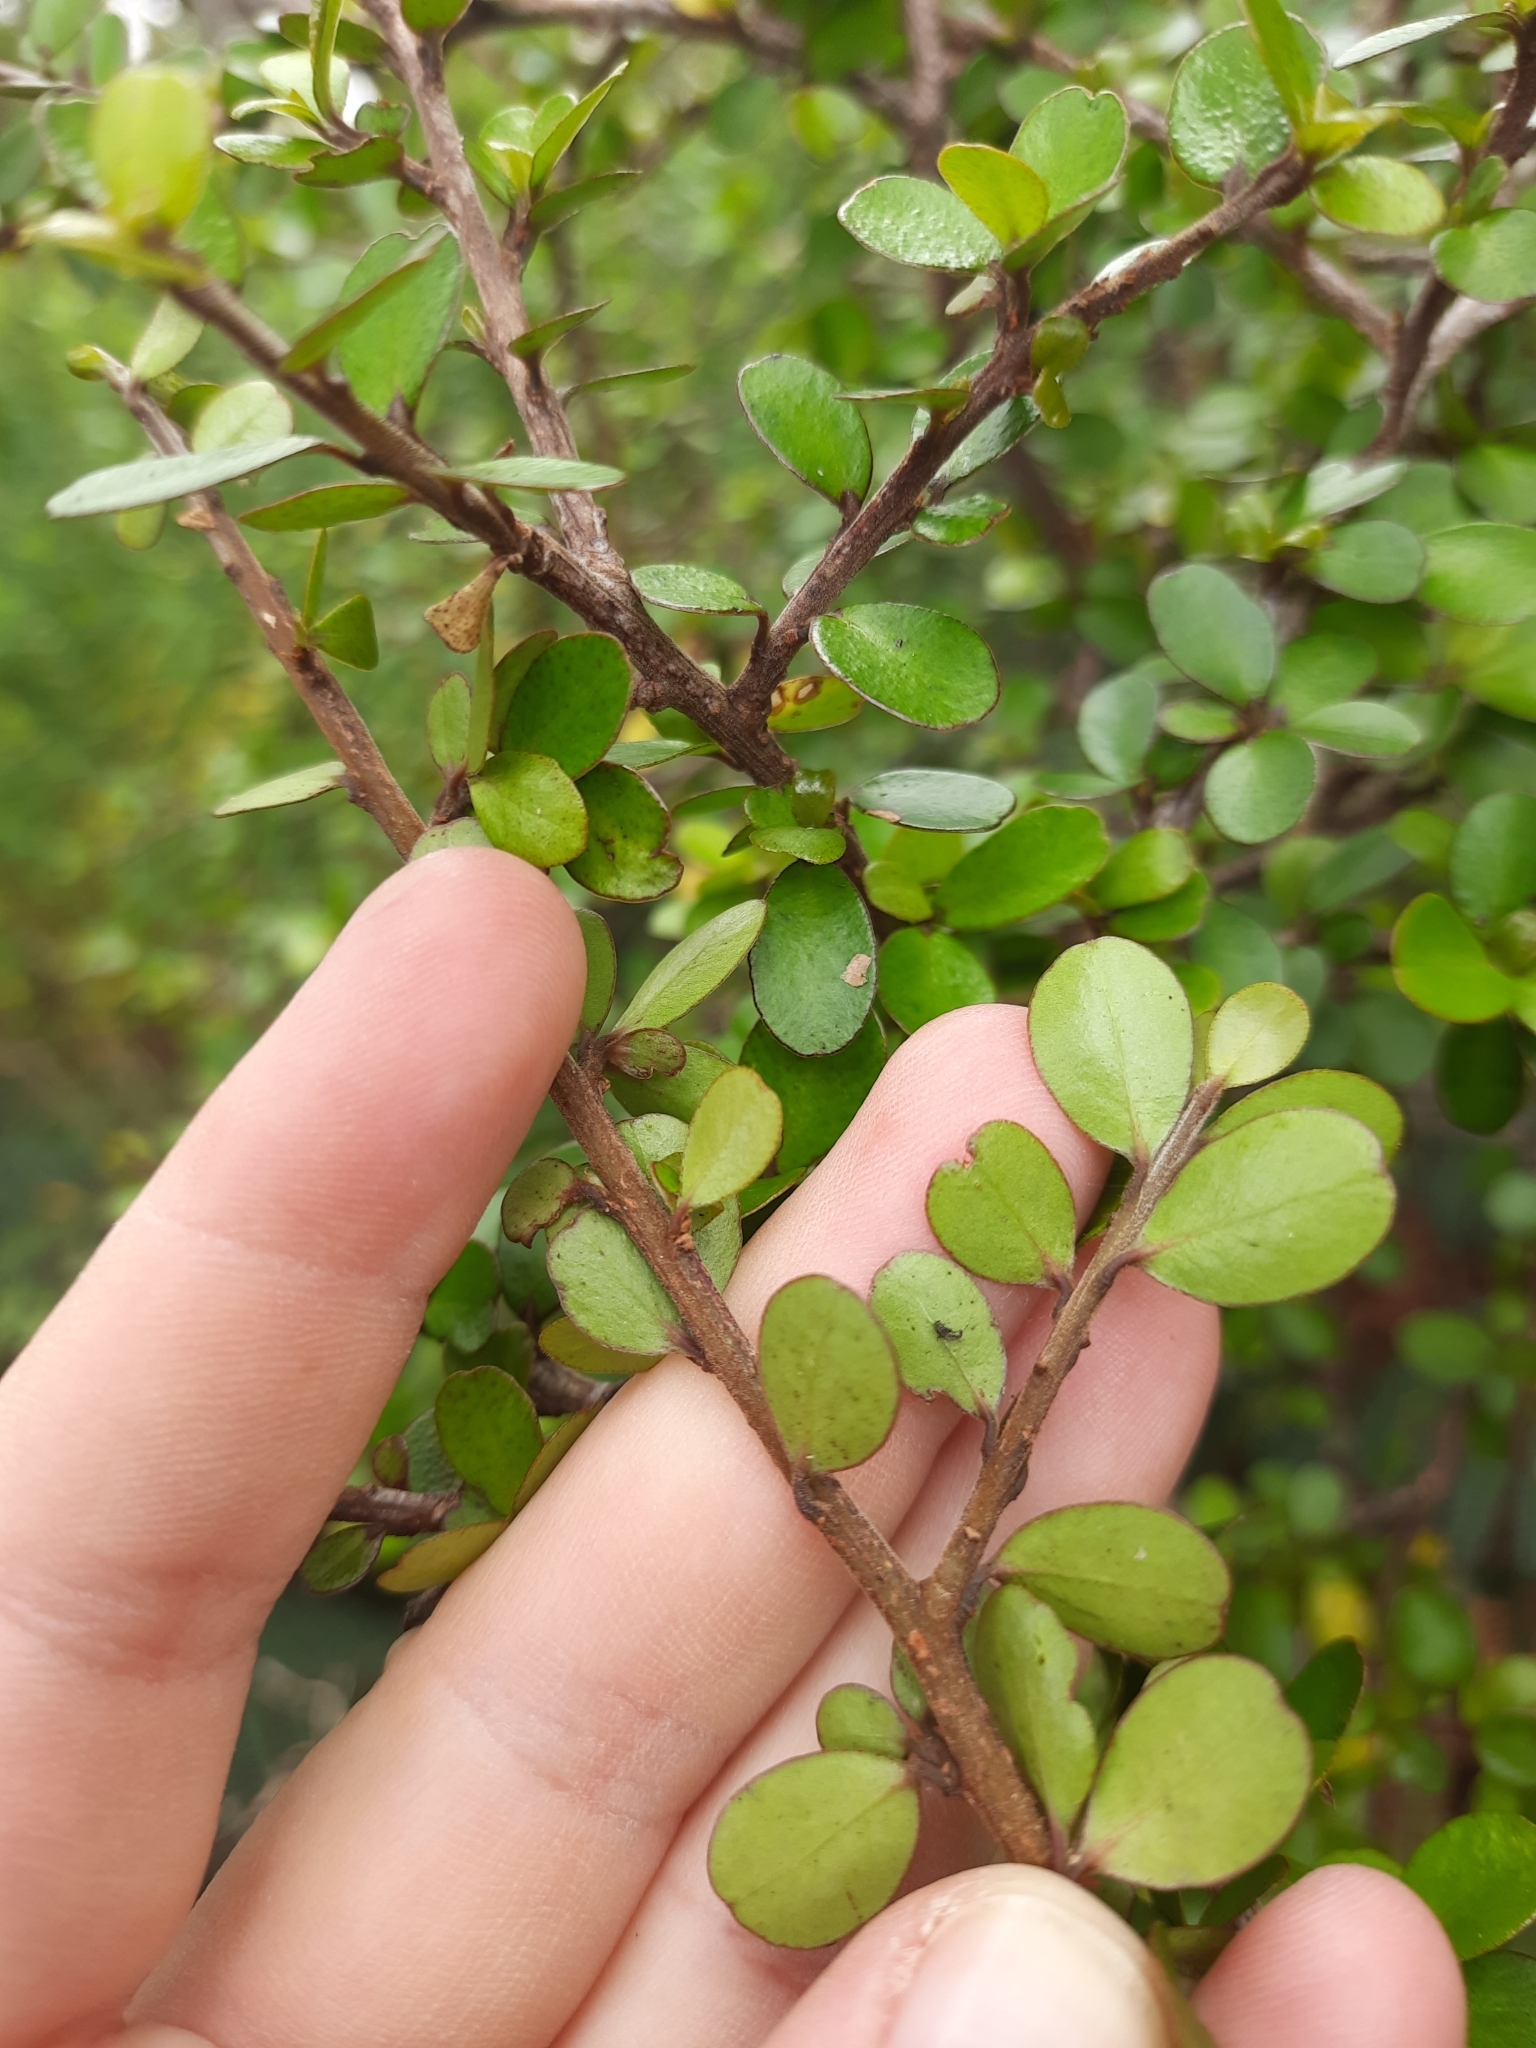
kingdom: Plantae
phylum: Tracheophyta
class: Magnoliopsida
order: Ericales
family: Primulaceae
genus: Myrsine
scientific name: Myrsine divaricata
